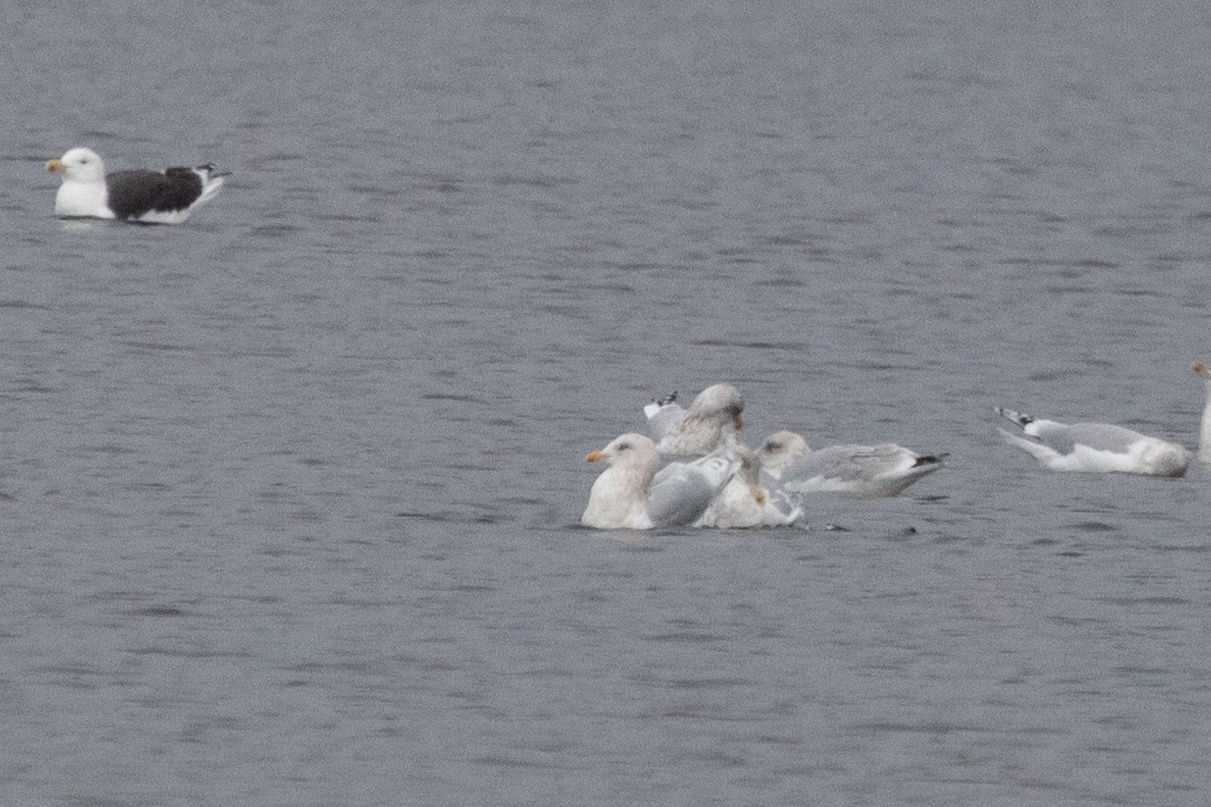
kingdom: Animalia
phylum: Chordata
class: Aves
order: Charadriiformes
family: Laridae
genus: Larus
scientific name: Larus glaucoides
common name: Iceland gull
